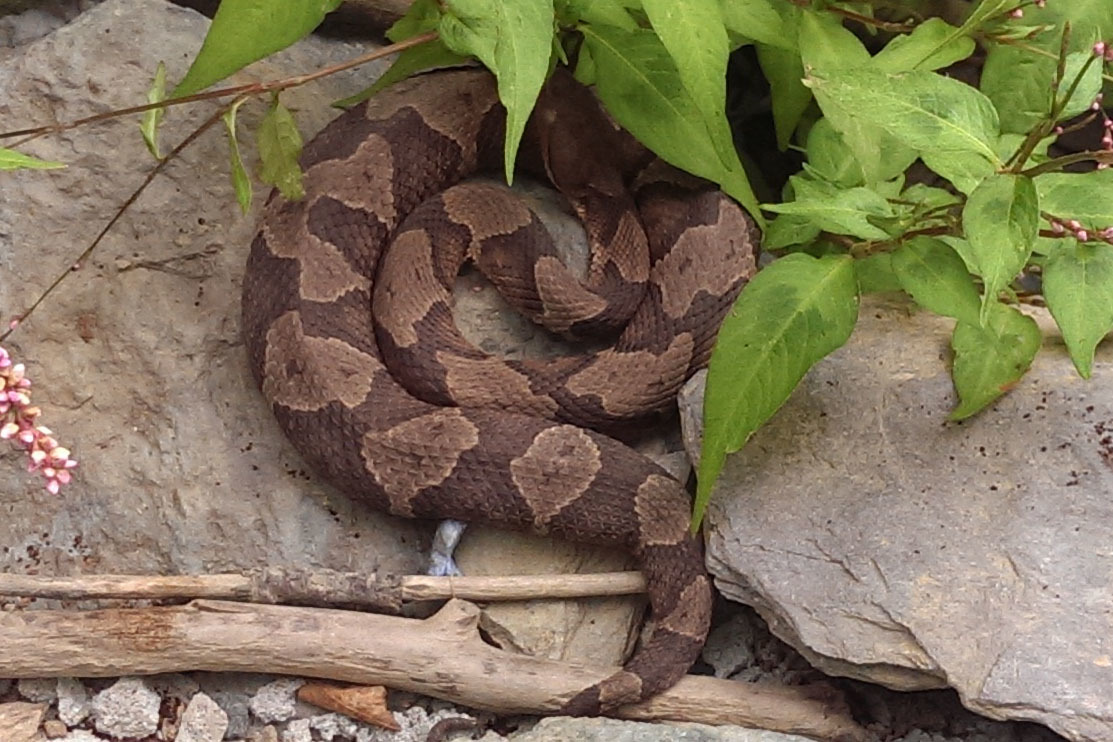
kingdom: Animalia
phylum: Chordata
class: Squamata
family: Viperidae
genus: Agkistrodon
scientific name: Agkistrodon contortrix
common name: Northern copperhead
